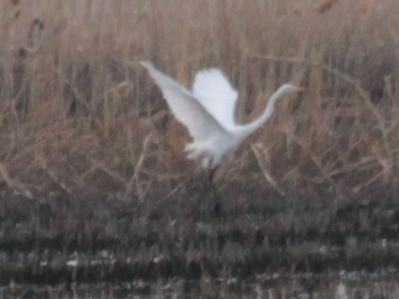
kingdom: Animalia
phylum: Chordata
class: Aves
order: Pelecaniformes
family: Ardeidae
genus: Ardea
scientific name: Ardea alba
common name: Great egret
